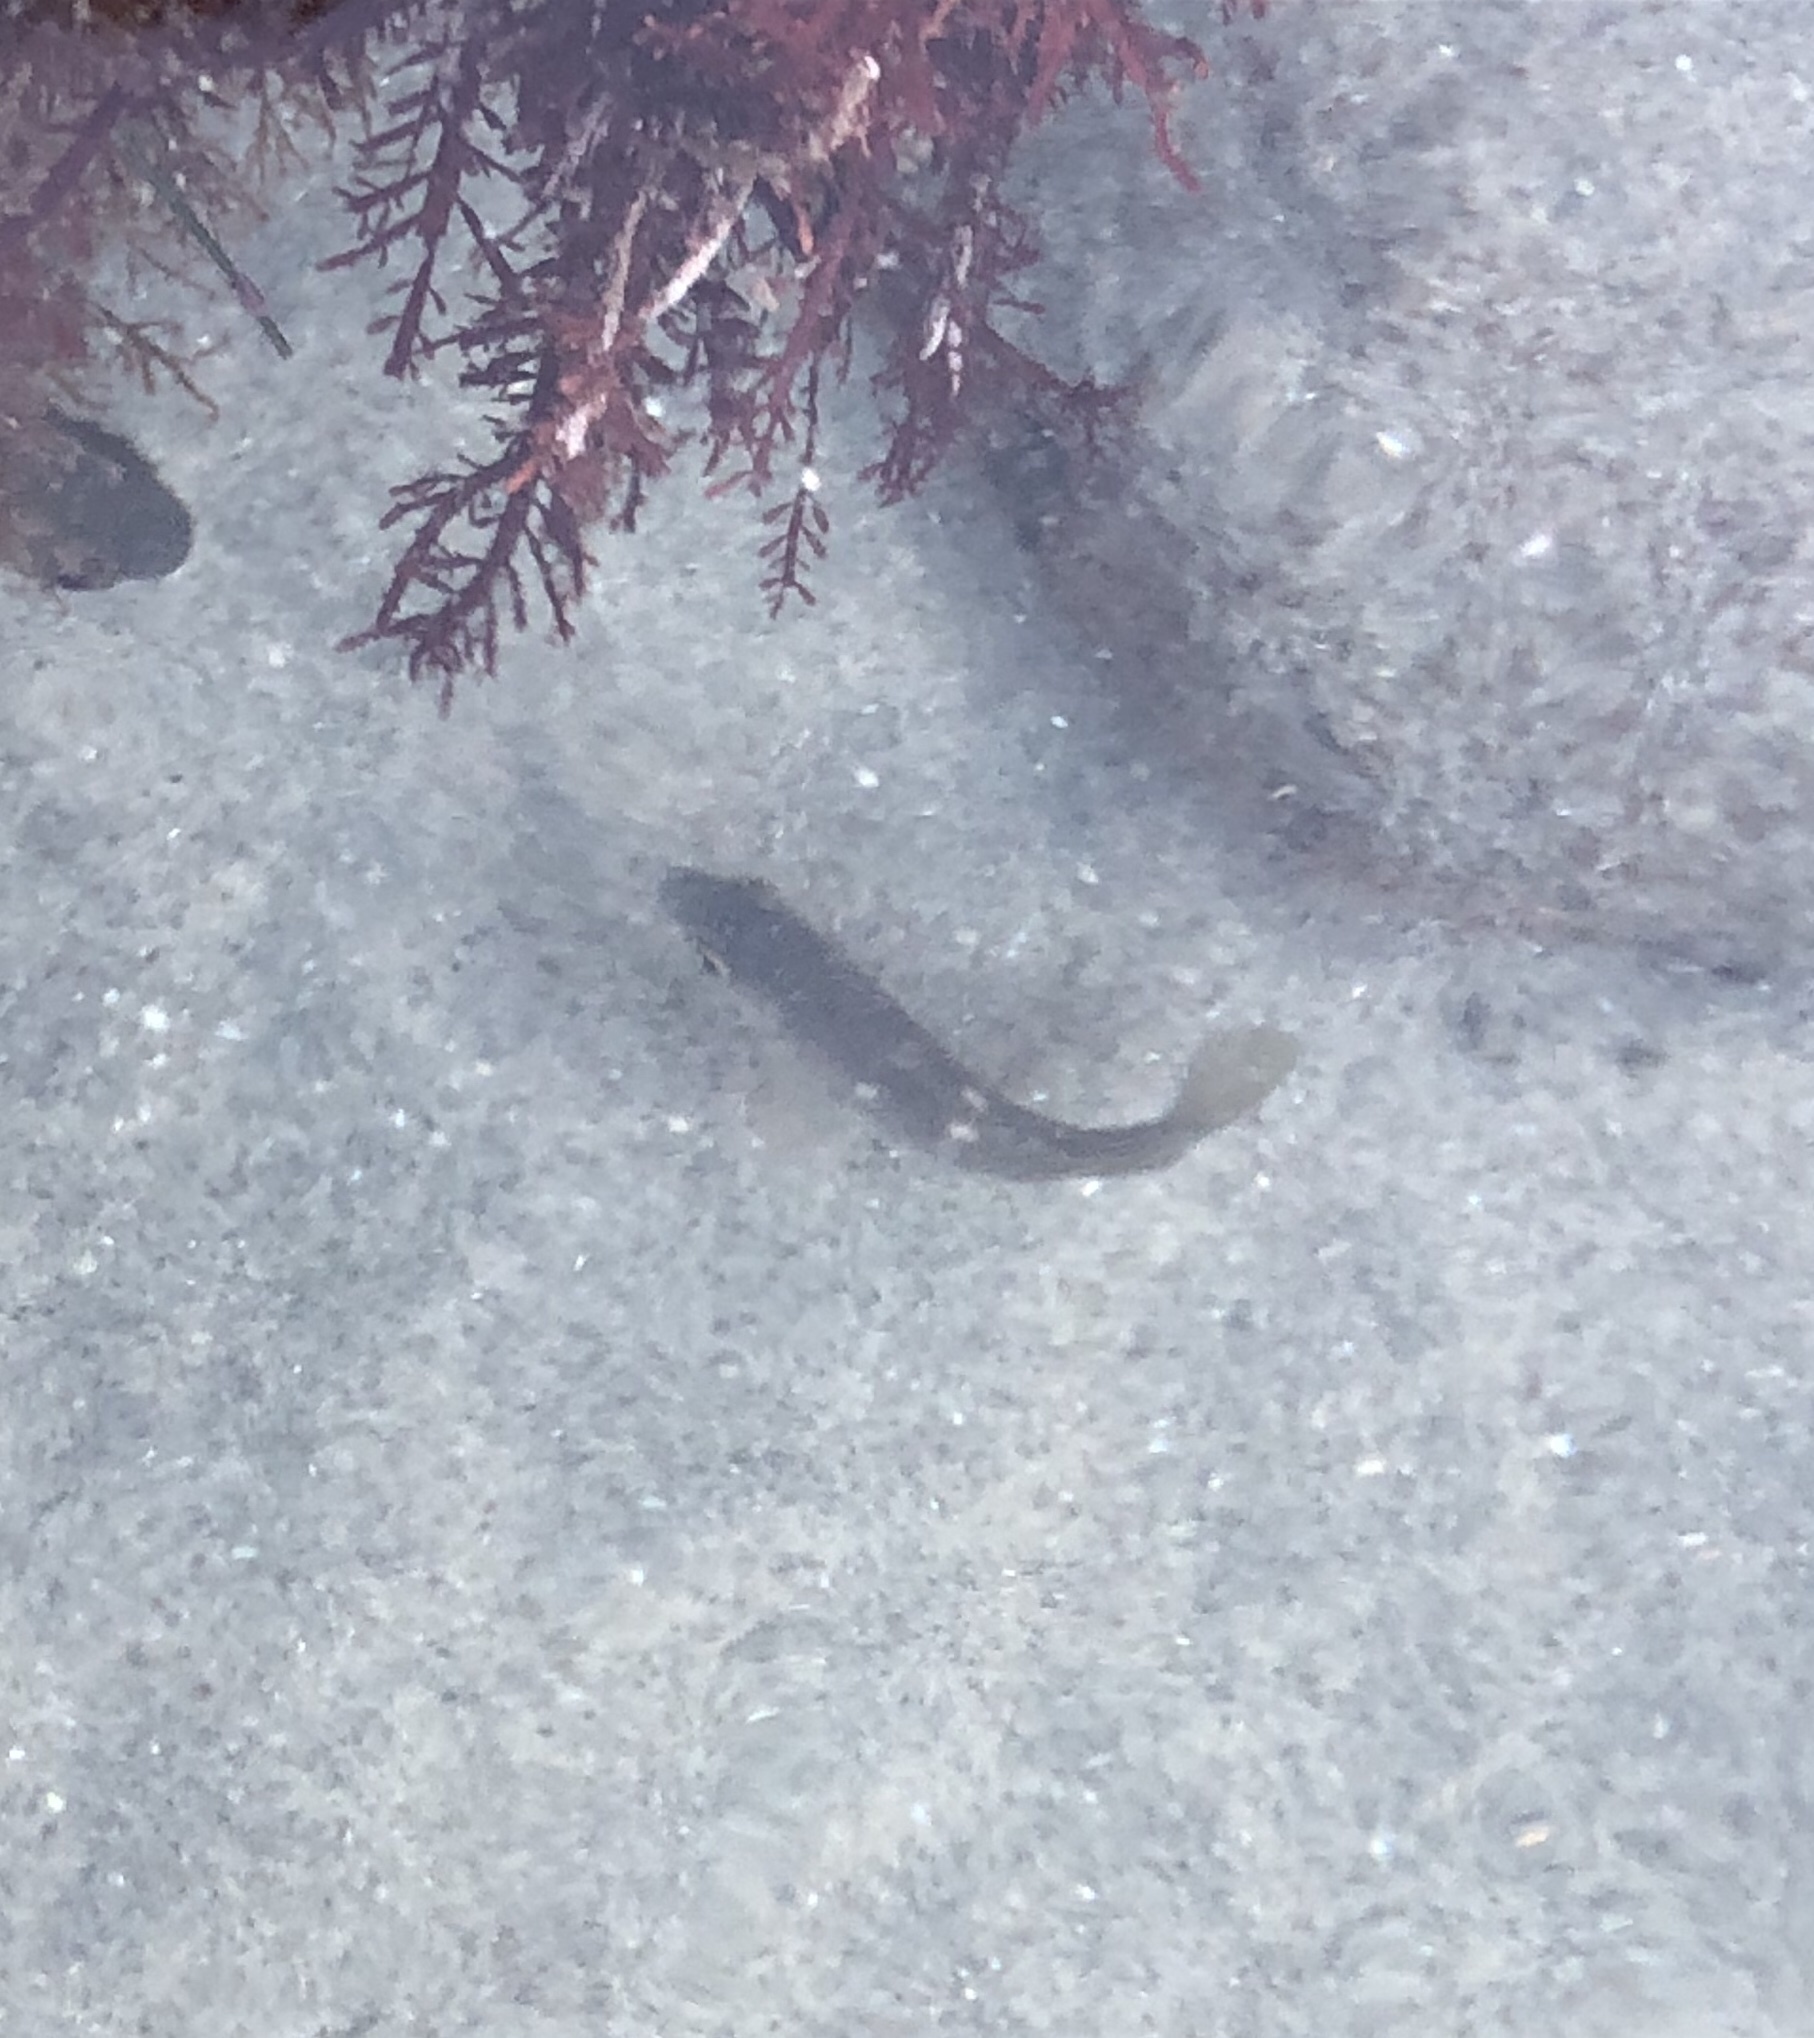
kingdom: Animalia
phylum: Chordata
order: Perciformes
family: Kyphosidae
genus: Girella
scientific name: Girella nigricans
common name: Opaleye
